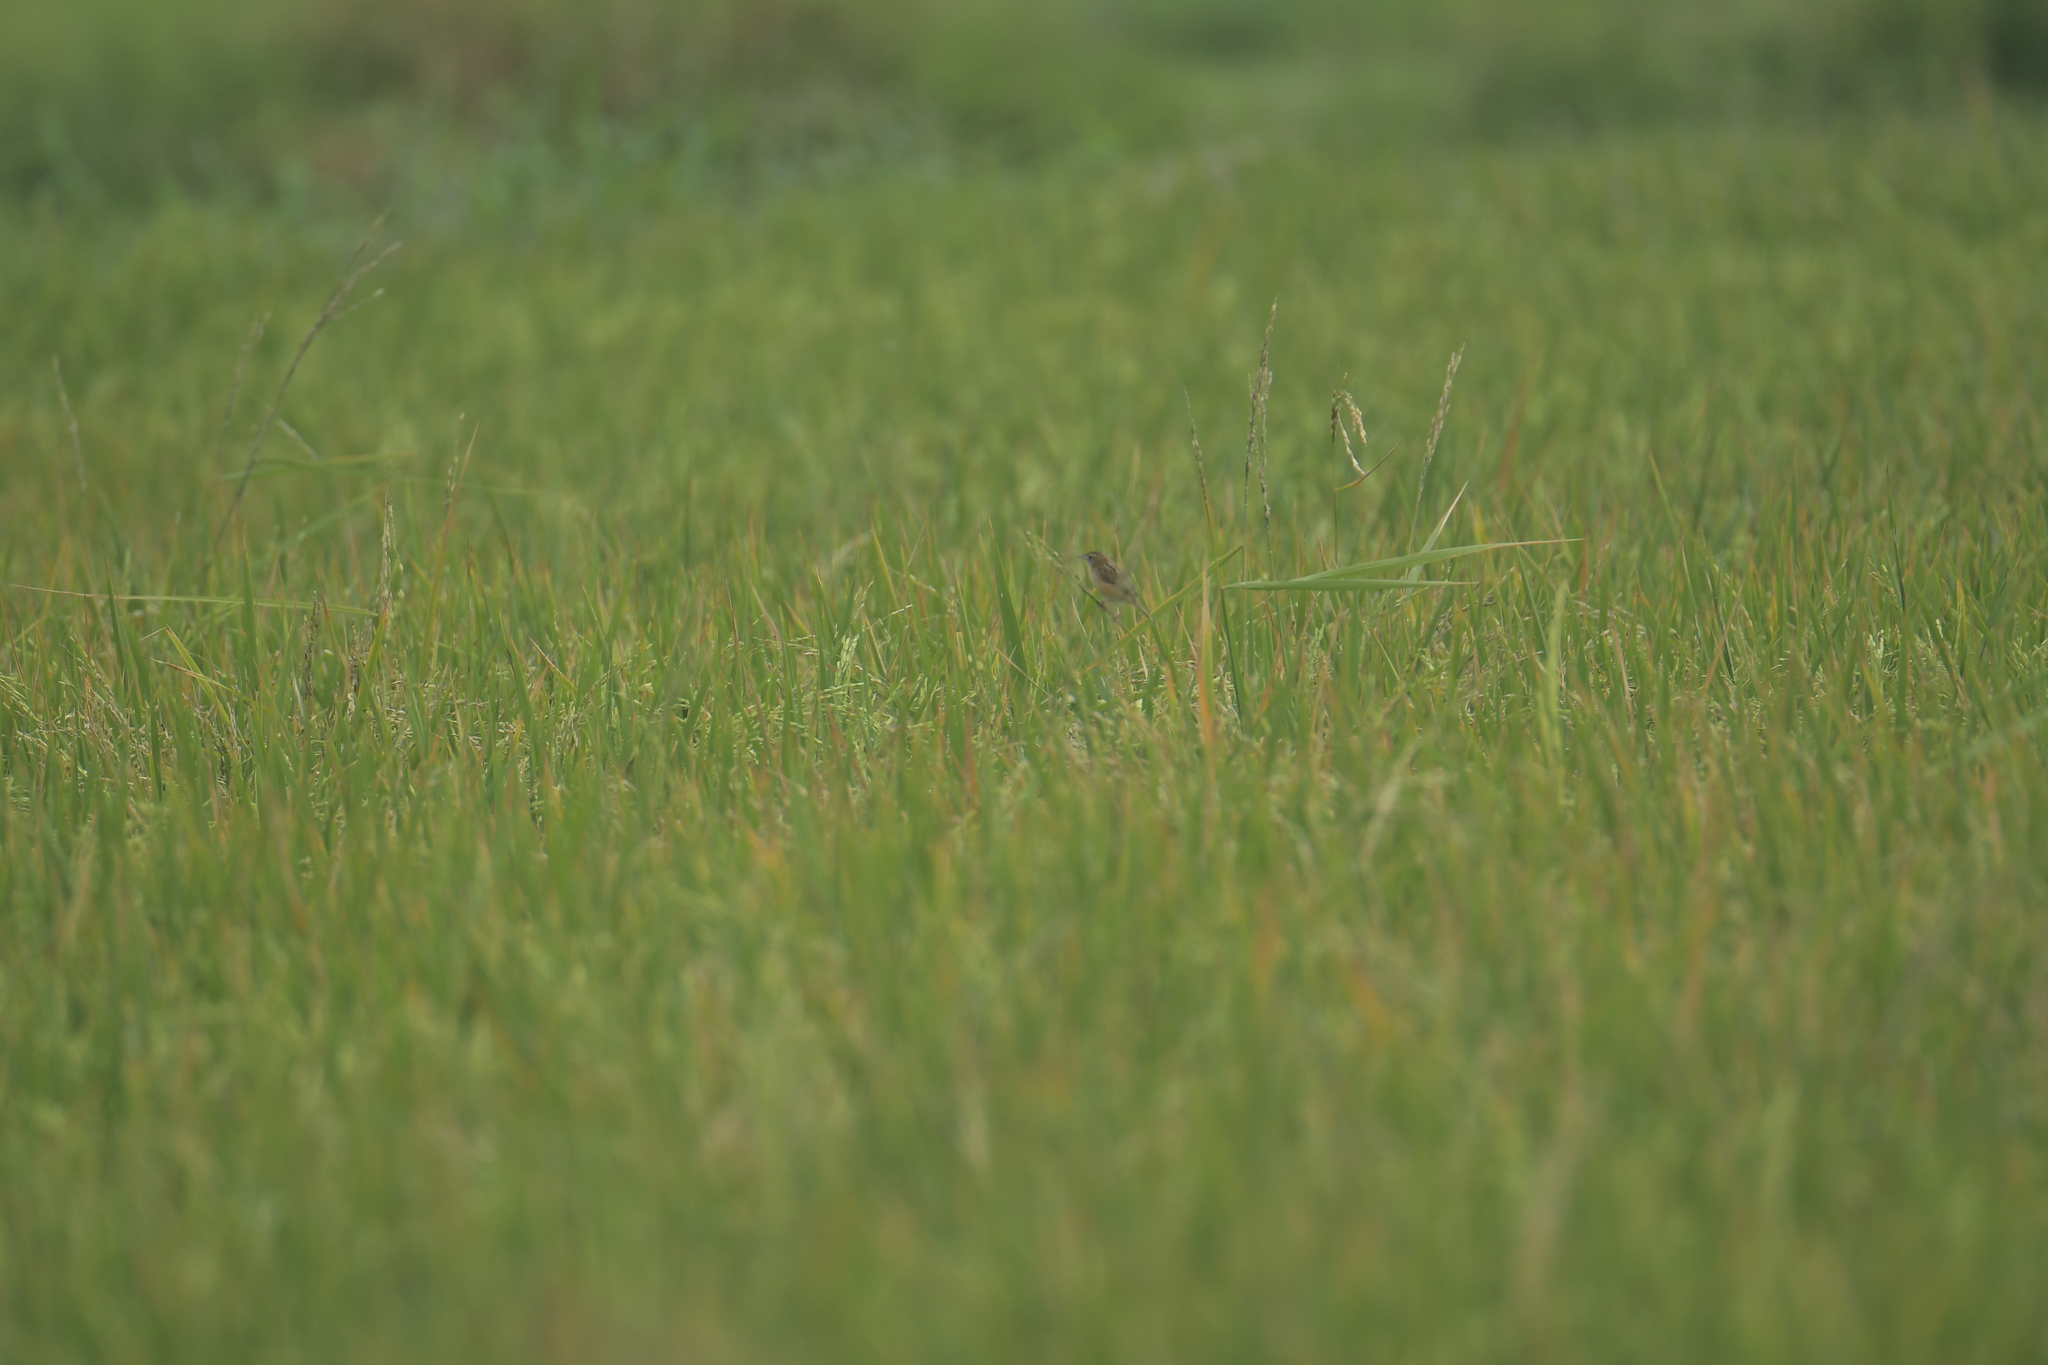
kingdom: Animalia
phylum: Chordata
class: Aves
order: Passeriformes
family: Cisticolidae
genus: Cisticola
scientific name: Cisticola juncidis
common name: Zitting cisticola
